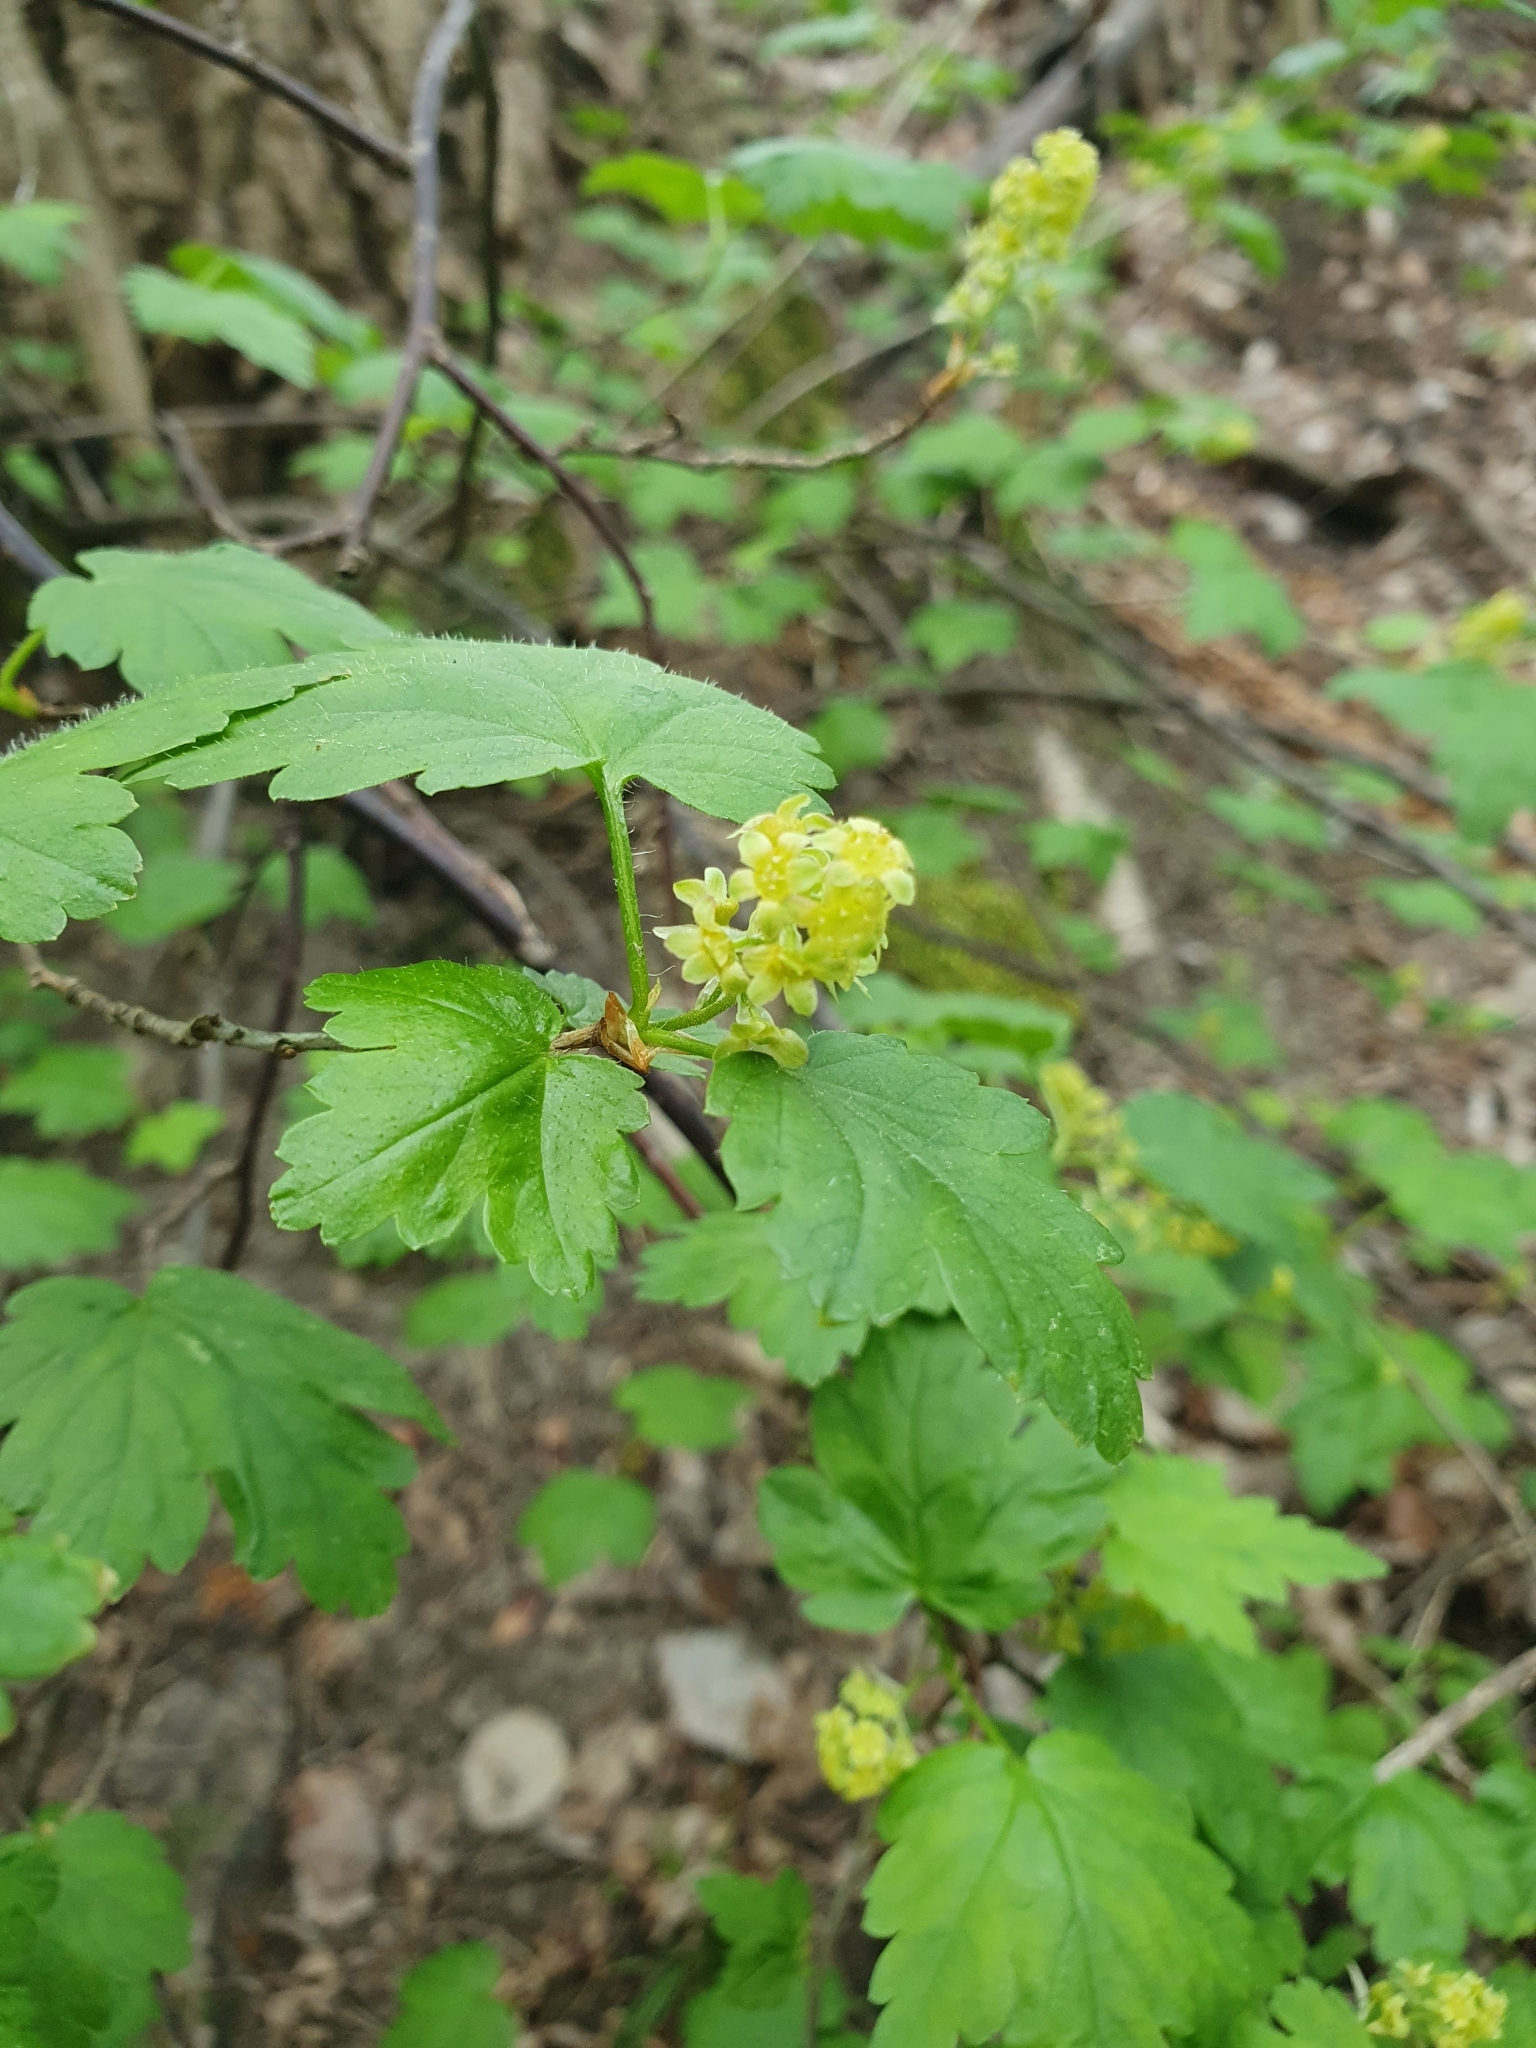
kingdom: Plantae
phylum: Tracheophyta
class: Magnoliopsida
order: Saxifragales
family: Grossulariaceae
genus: Ribes
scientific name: Ribes alpinum
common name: Alpine currant
